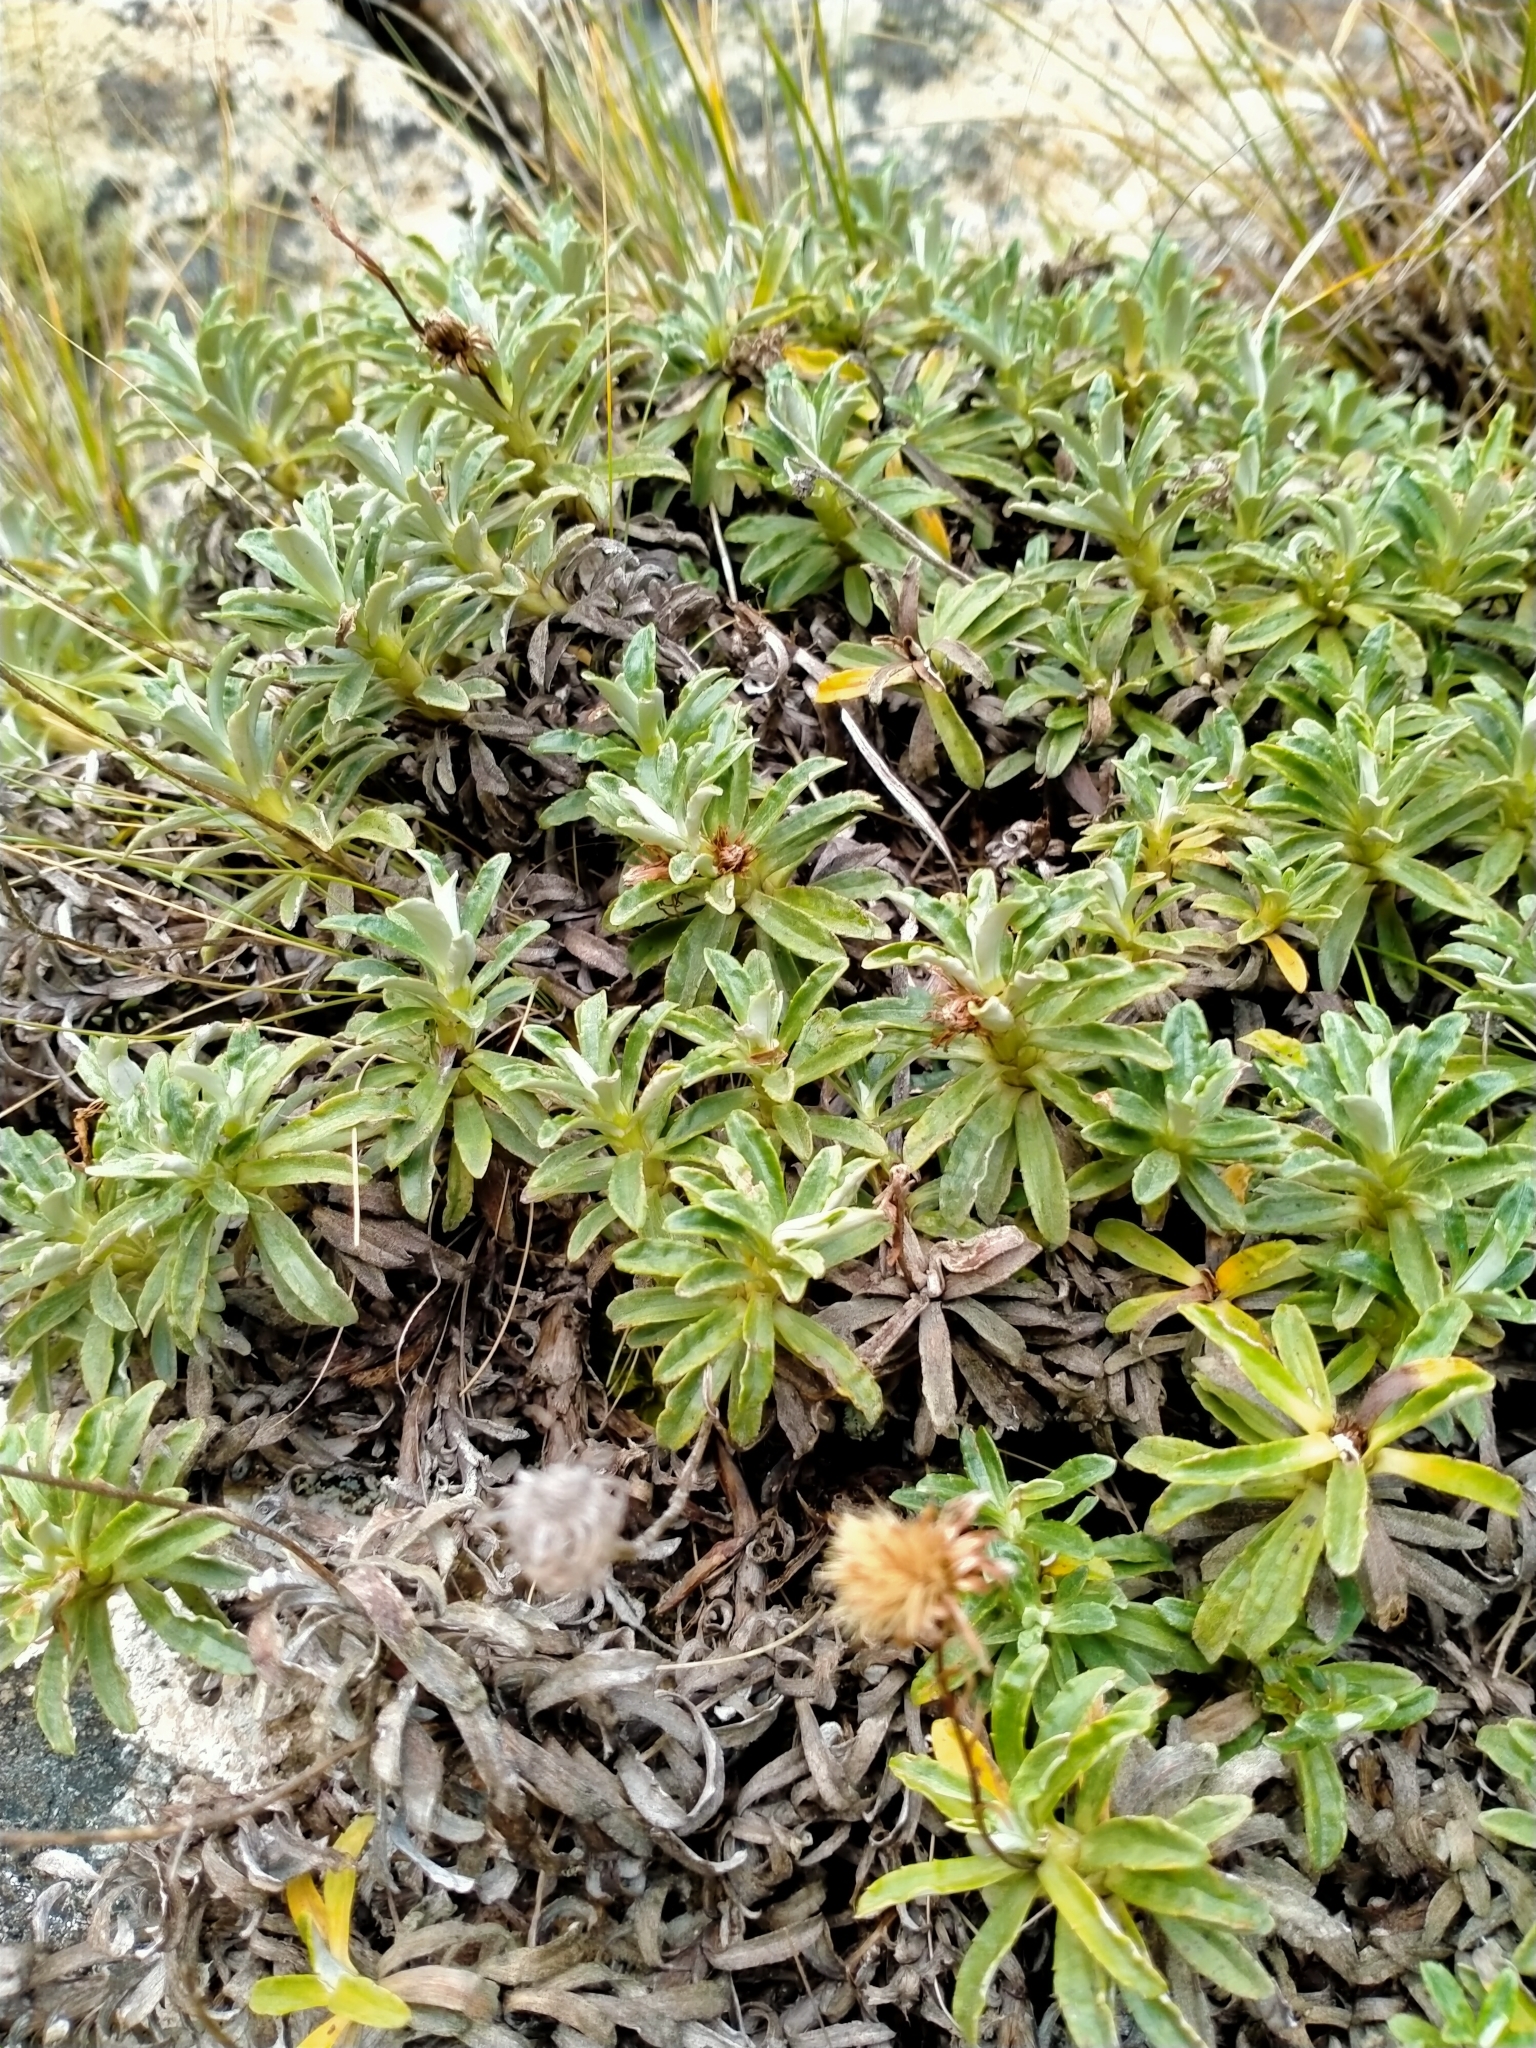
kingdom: Plantae
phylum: Tracheophyta
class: Magnoliopsida
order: Asterales
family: Asteraceae
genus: Celmisia
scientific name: Celmisia angustifolia
